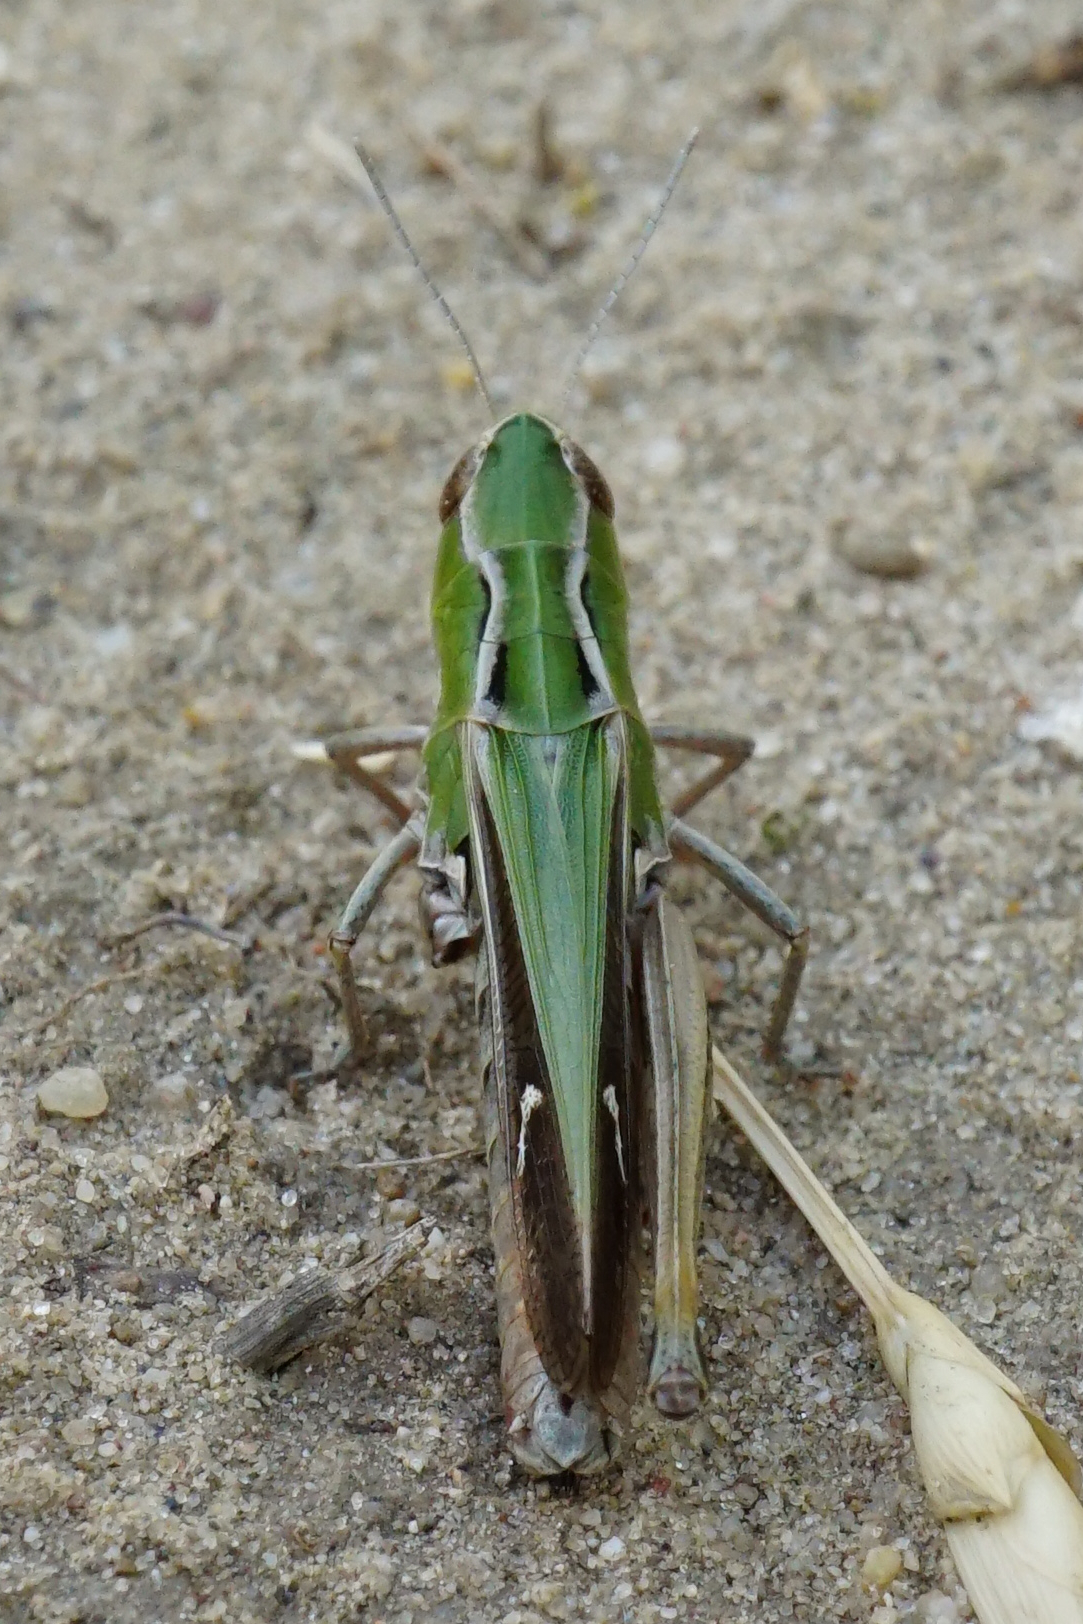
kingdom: Animalia
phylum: Arthropoda
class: Insecta
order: Orthoptera
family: Acrididae
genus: Stenobothrus
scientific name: Stenobothrus lineatus
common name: Stripe-winged grasshopper
